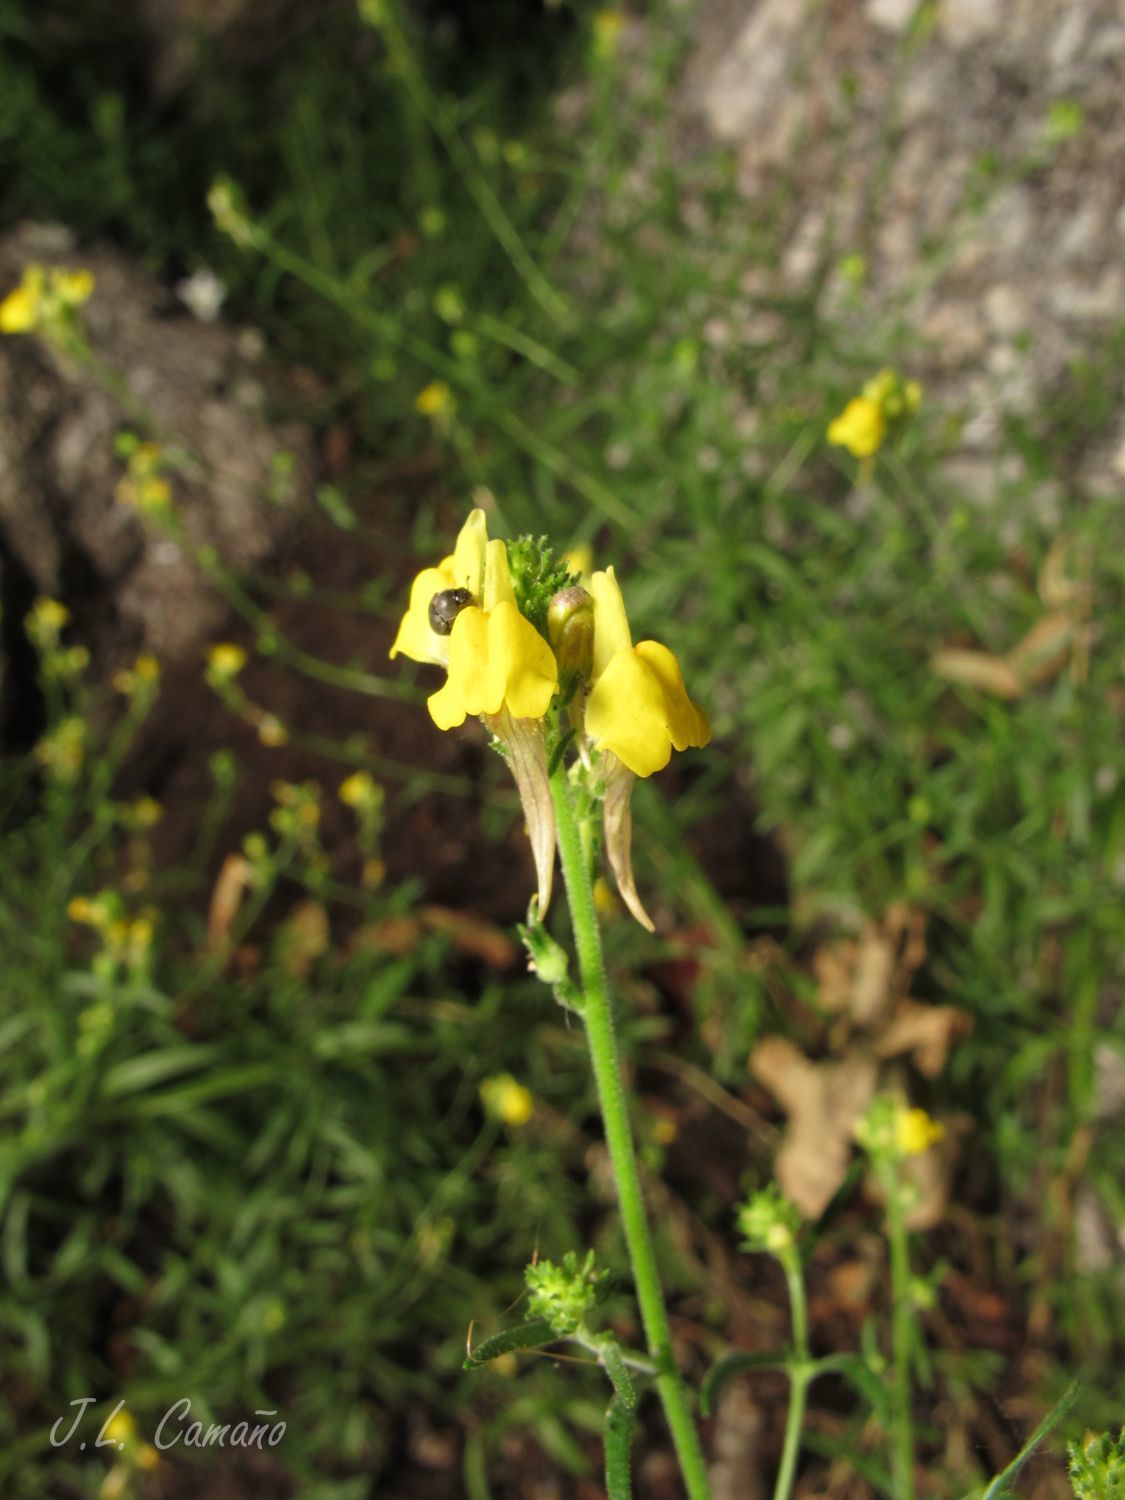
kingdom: Plantae
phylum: Tracheophyta
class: Magnoliopsida
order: Lamiales
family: Plantaginaceae
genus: Linaria
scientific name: Linaria saxatilis
